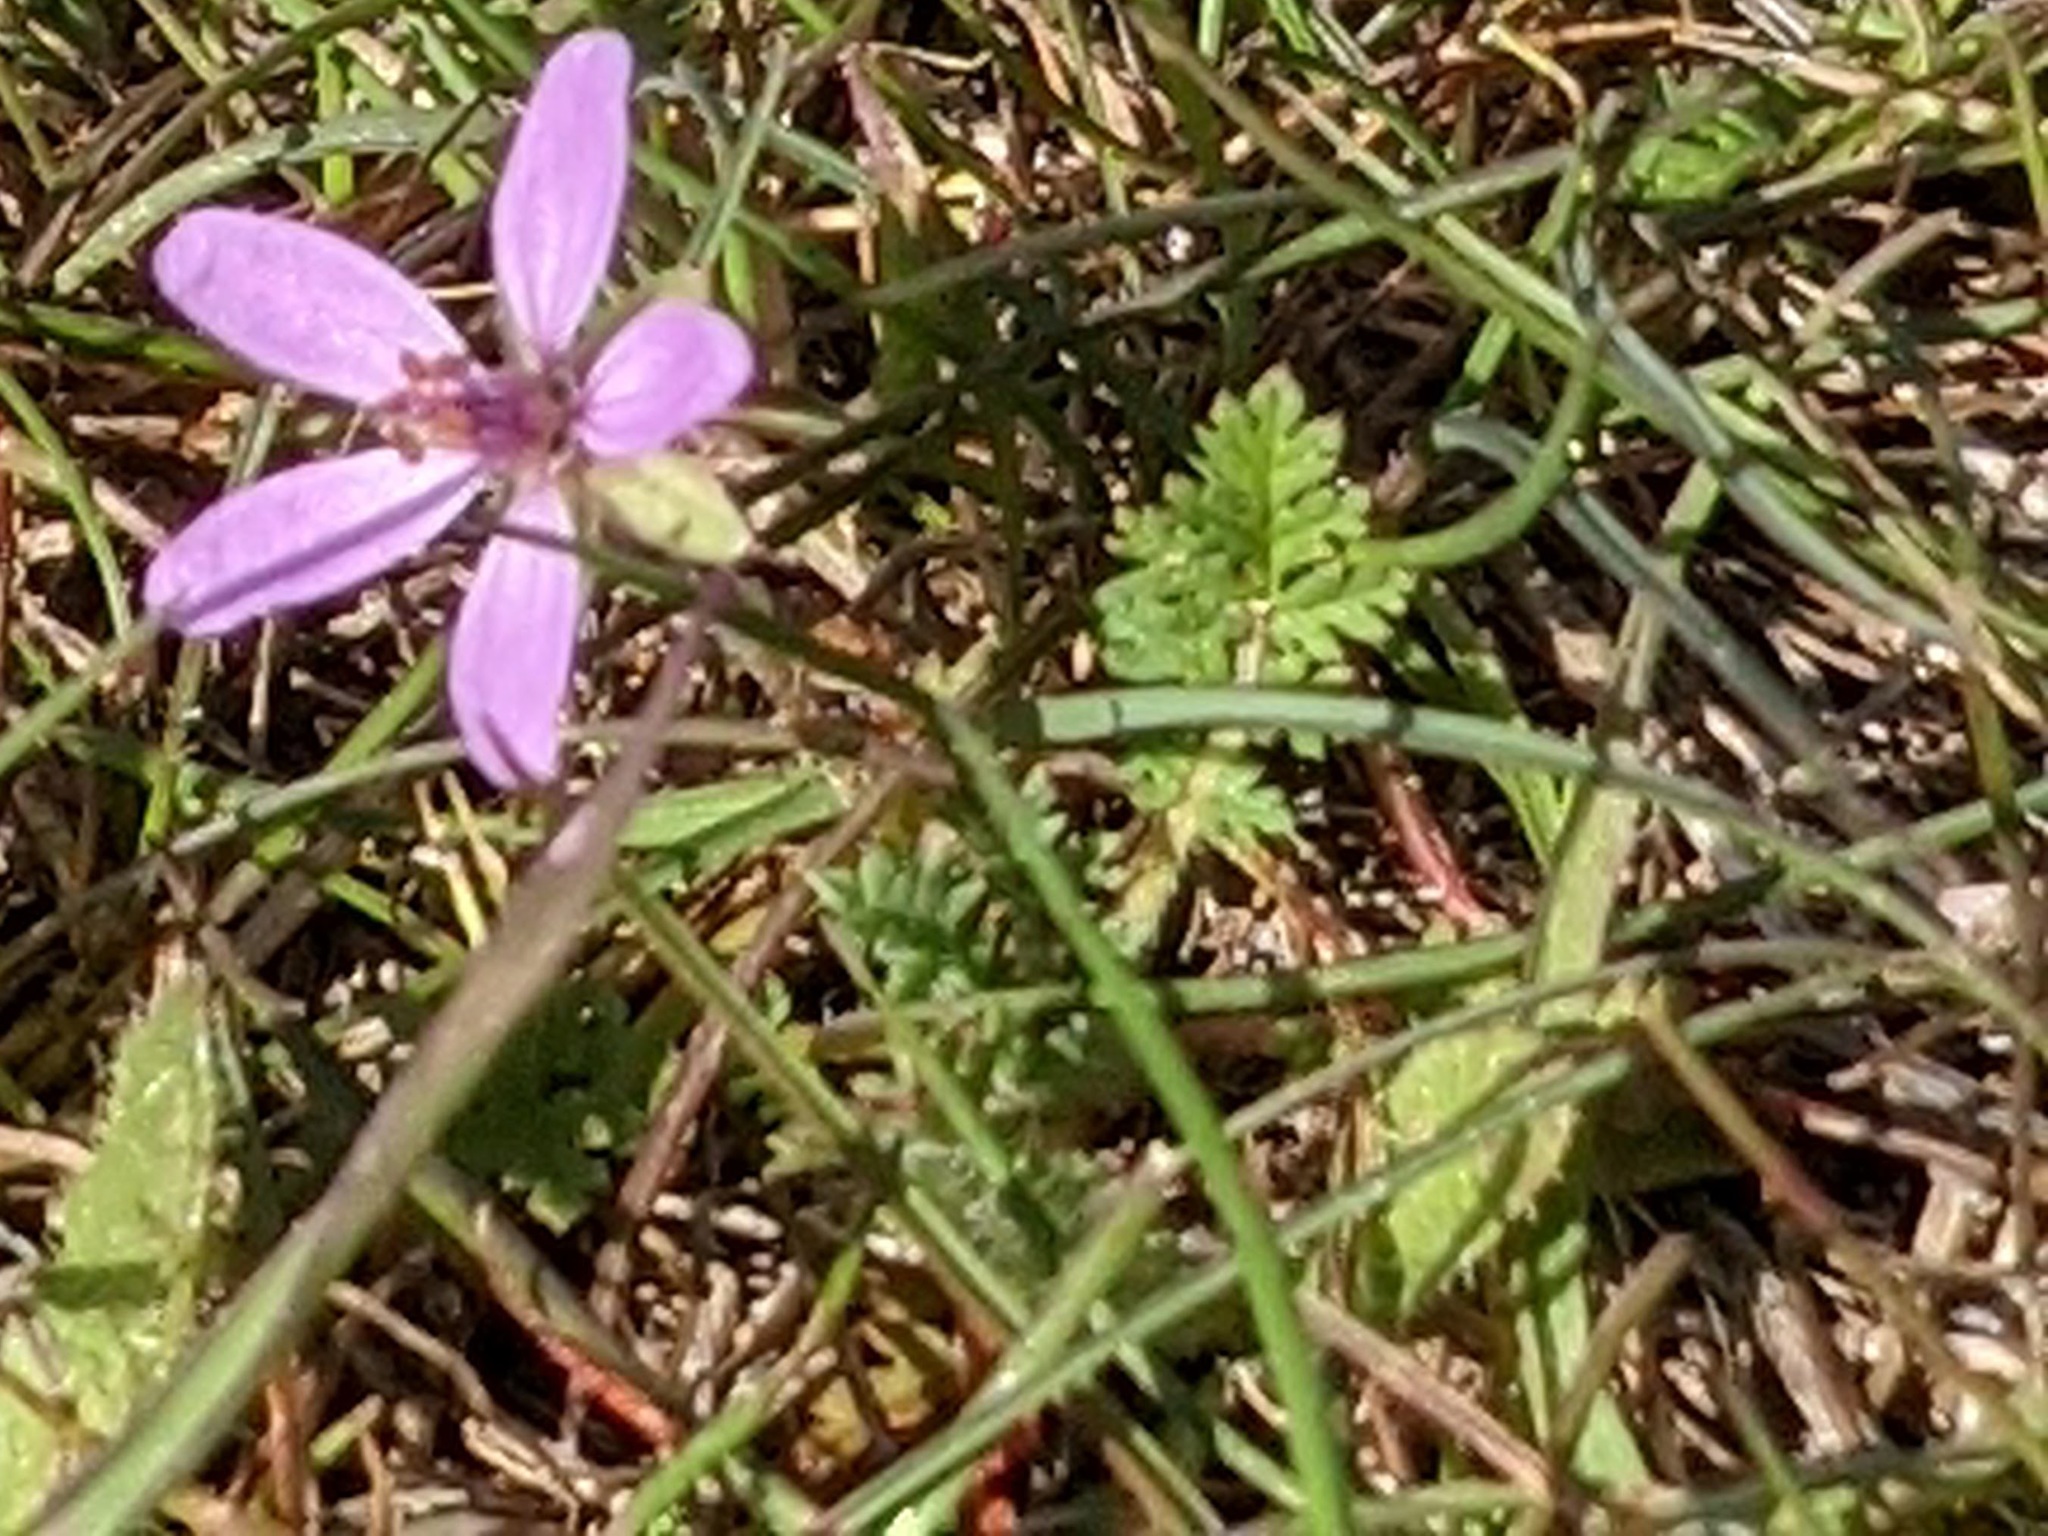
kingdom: Plantae
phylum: Tracheophyta
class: Magnoliopsida
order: Geraniales
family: Geraniaceae
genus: Erodium
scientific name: Erodium cicutarium
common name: Common stork's-bill
